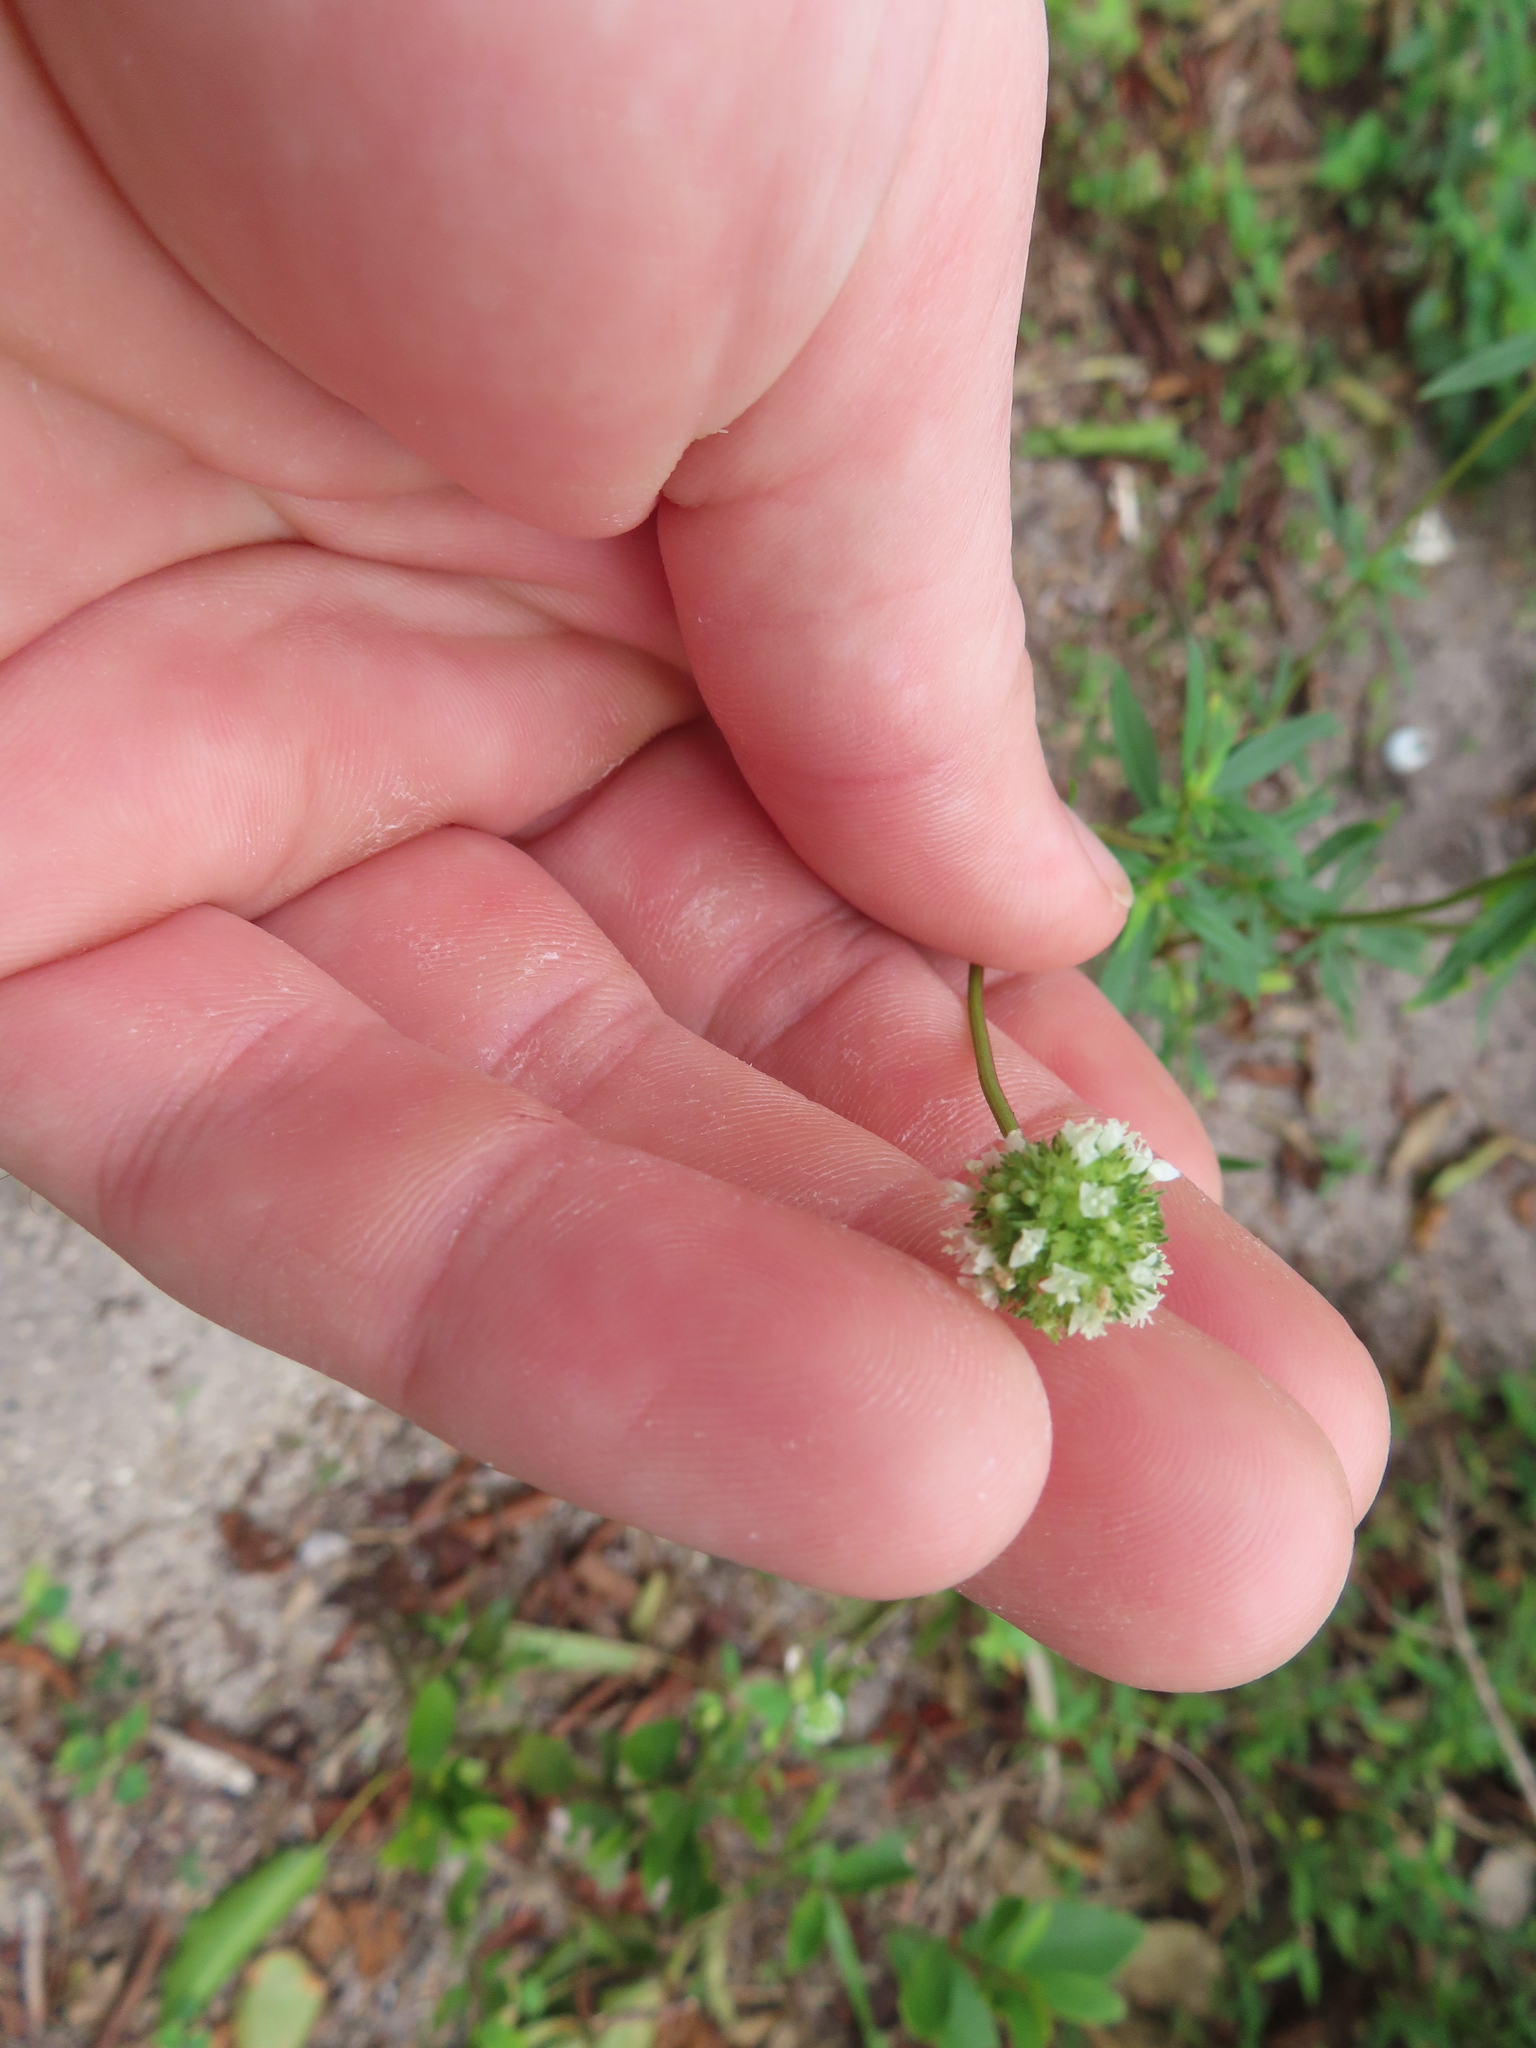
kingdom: Plantae
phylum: Tracheophyta
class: Magnoliopsida
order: Gentianales
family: Rubiaceae
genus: Spermacoce
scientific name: Spermacoce verticillata
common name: Shrubby false buttonweed
